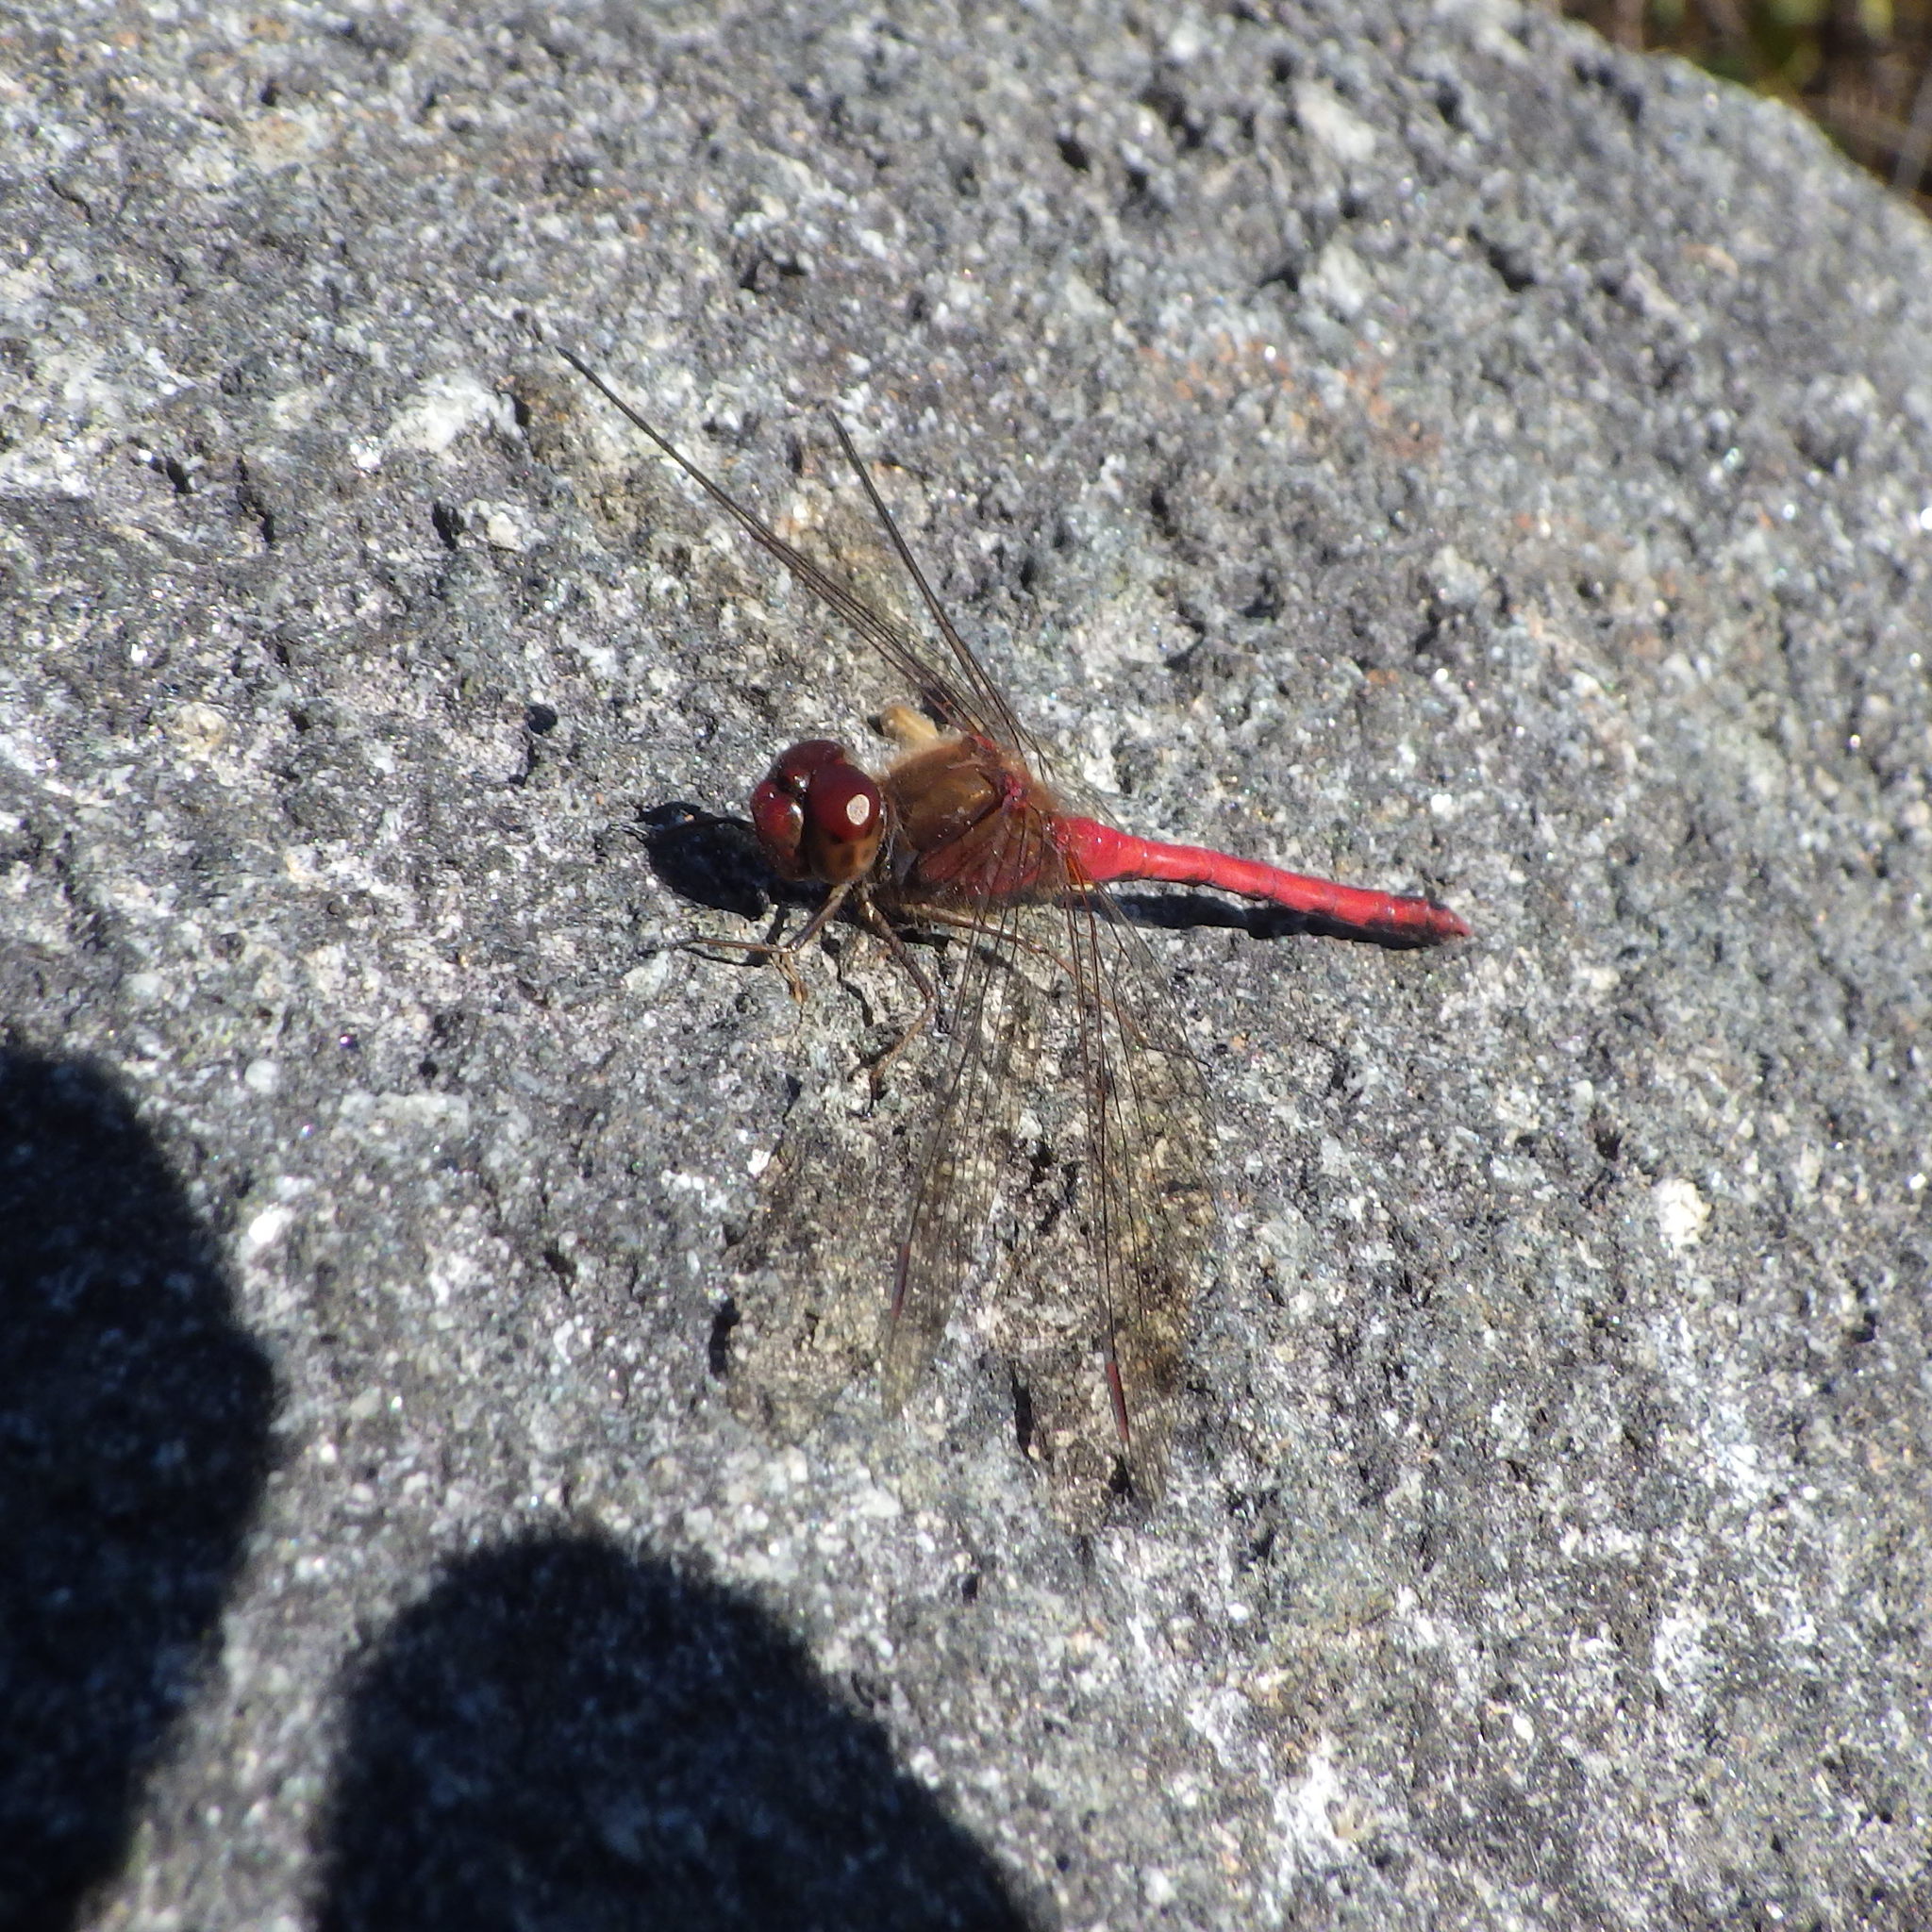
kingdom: Animalia
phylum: Arthropoda
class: Insecta
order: Odonata
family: Libellulidae
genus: Sympetrum
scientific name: Sympetrum vicinum
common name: Autumn meadowhawk
